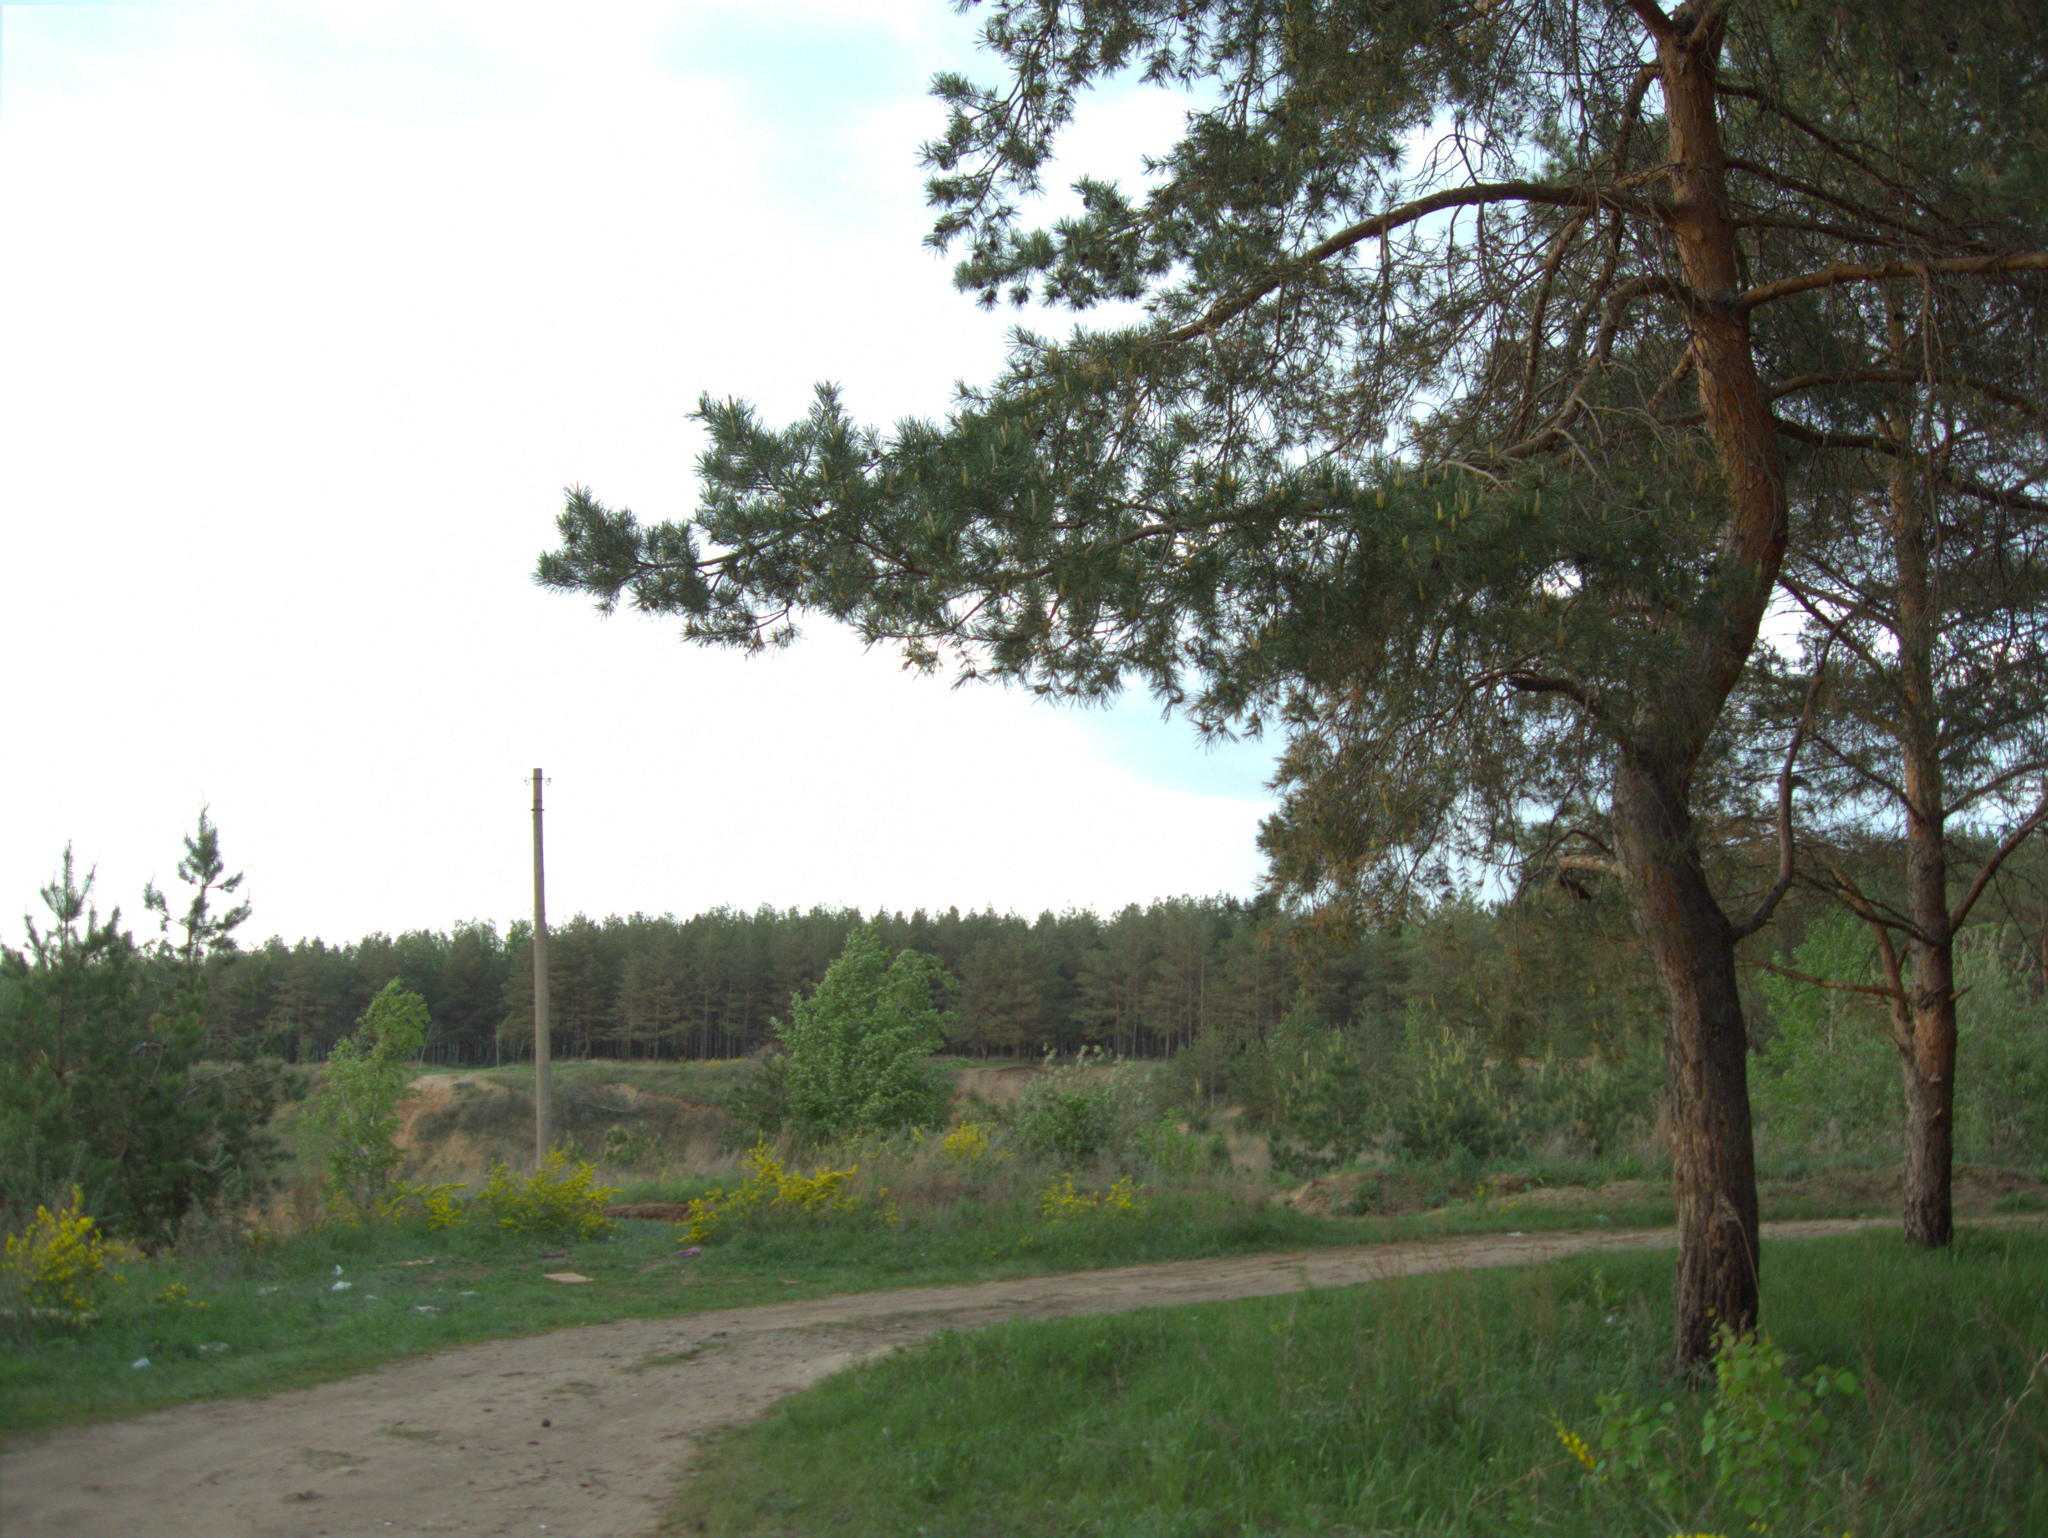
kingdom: Plantae
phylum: Tracheophyta
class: Pinopsida
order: Pinales
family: Pinaceae
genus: Pinus
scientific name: Pinus sylvestris
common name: Scots pine
